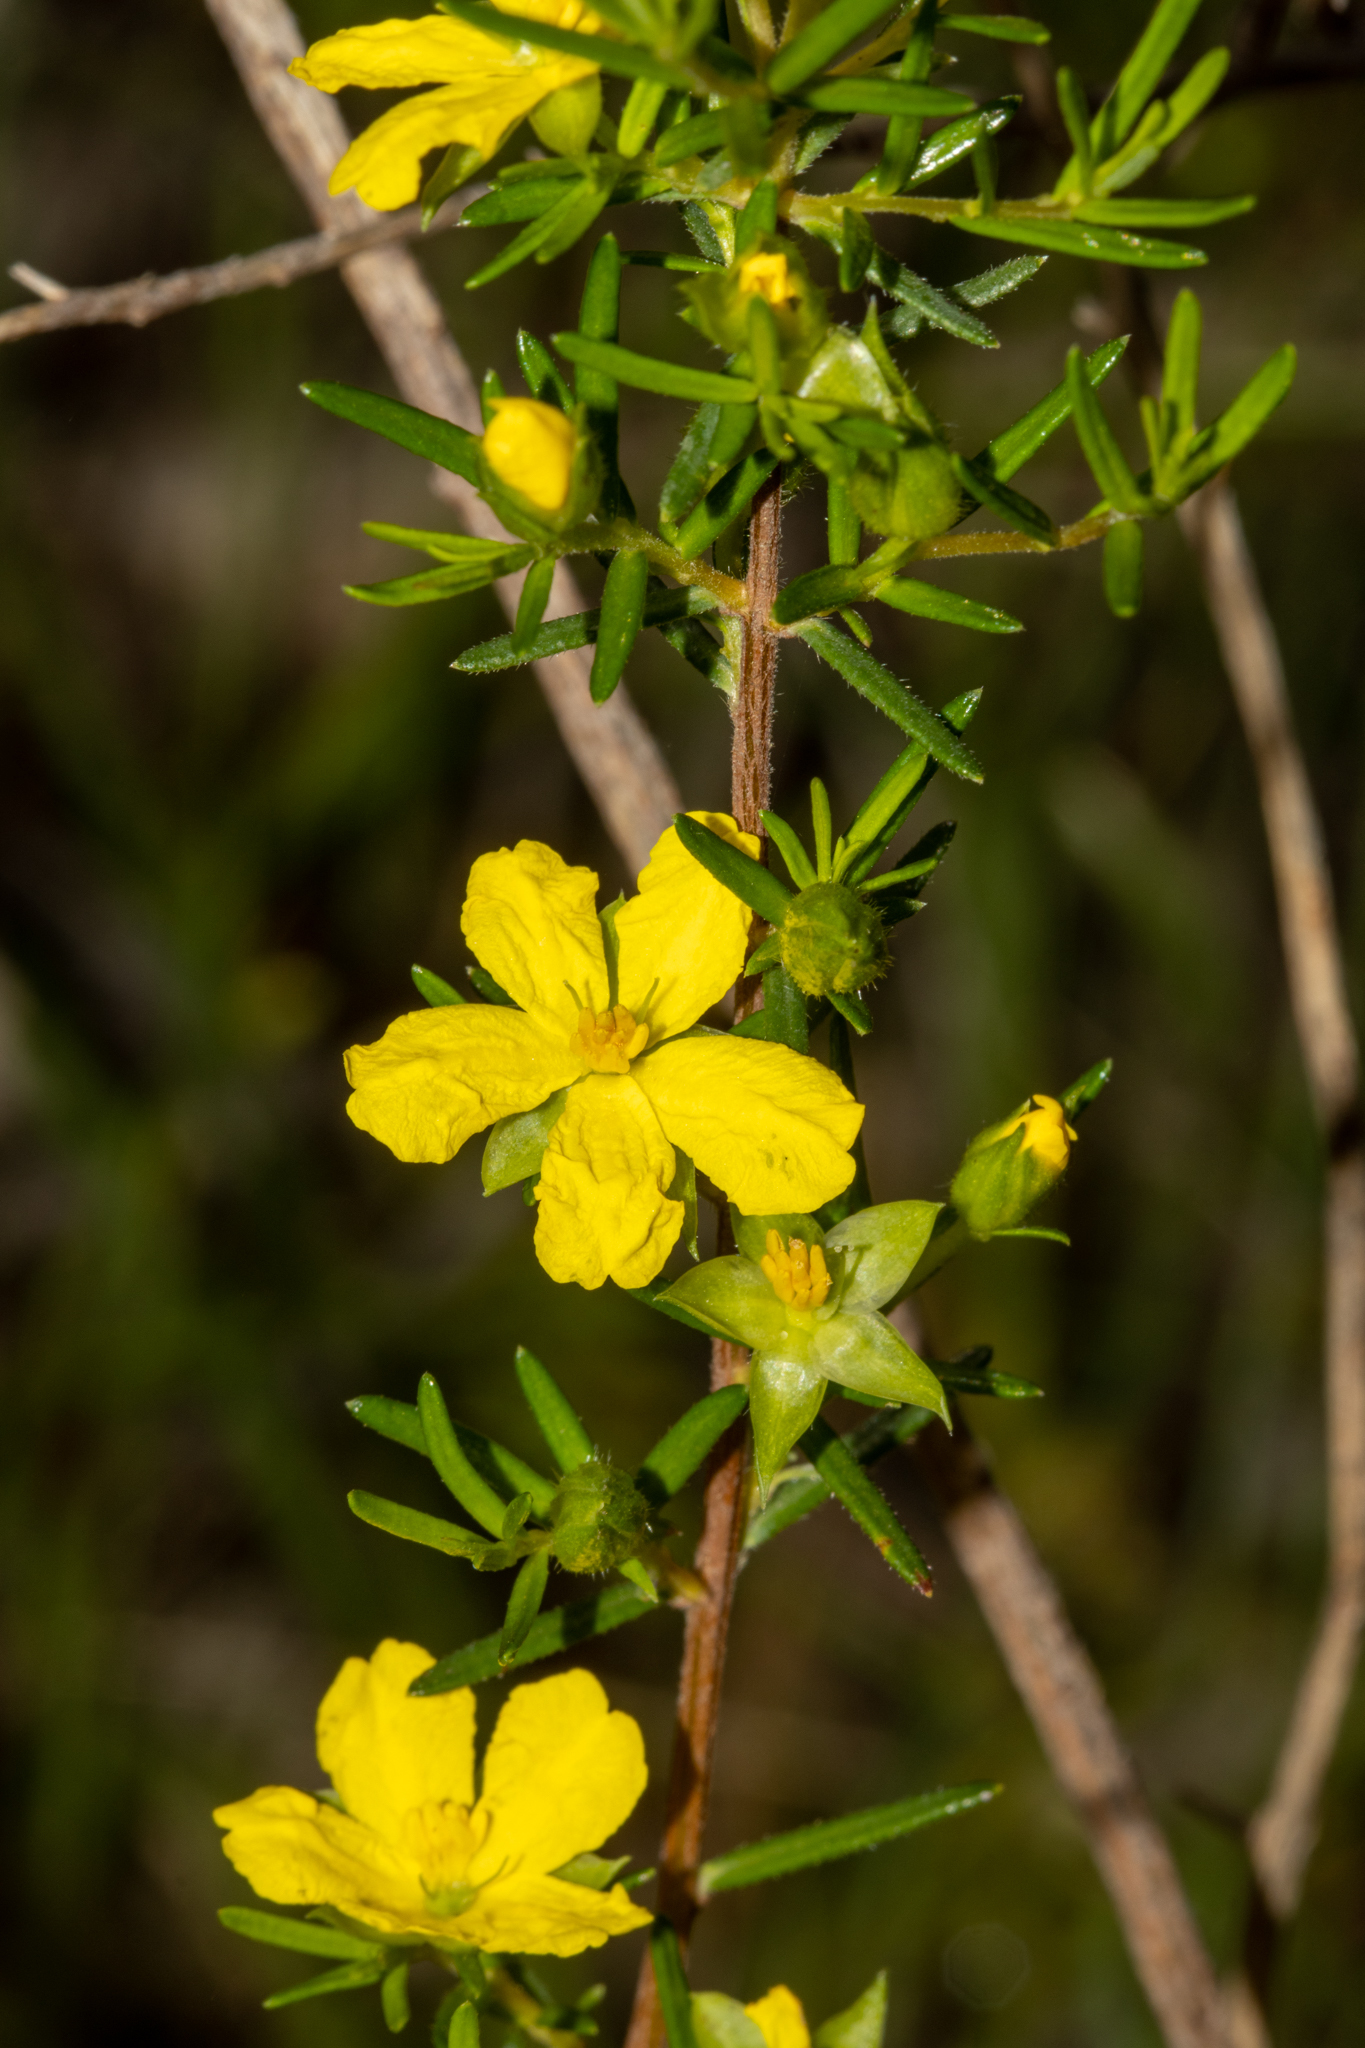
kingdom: Plantae
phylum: Tracheophyta
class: Magnoliopsida
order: Dilleniales
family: Dilleniaceae
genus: Hibbertia
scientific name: Hibbertia riparia
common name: Erect guinea-flower
